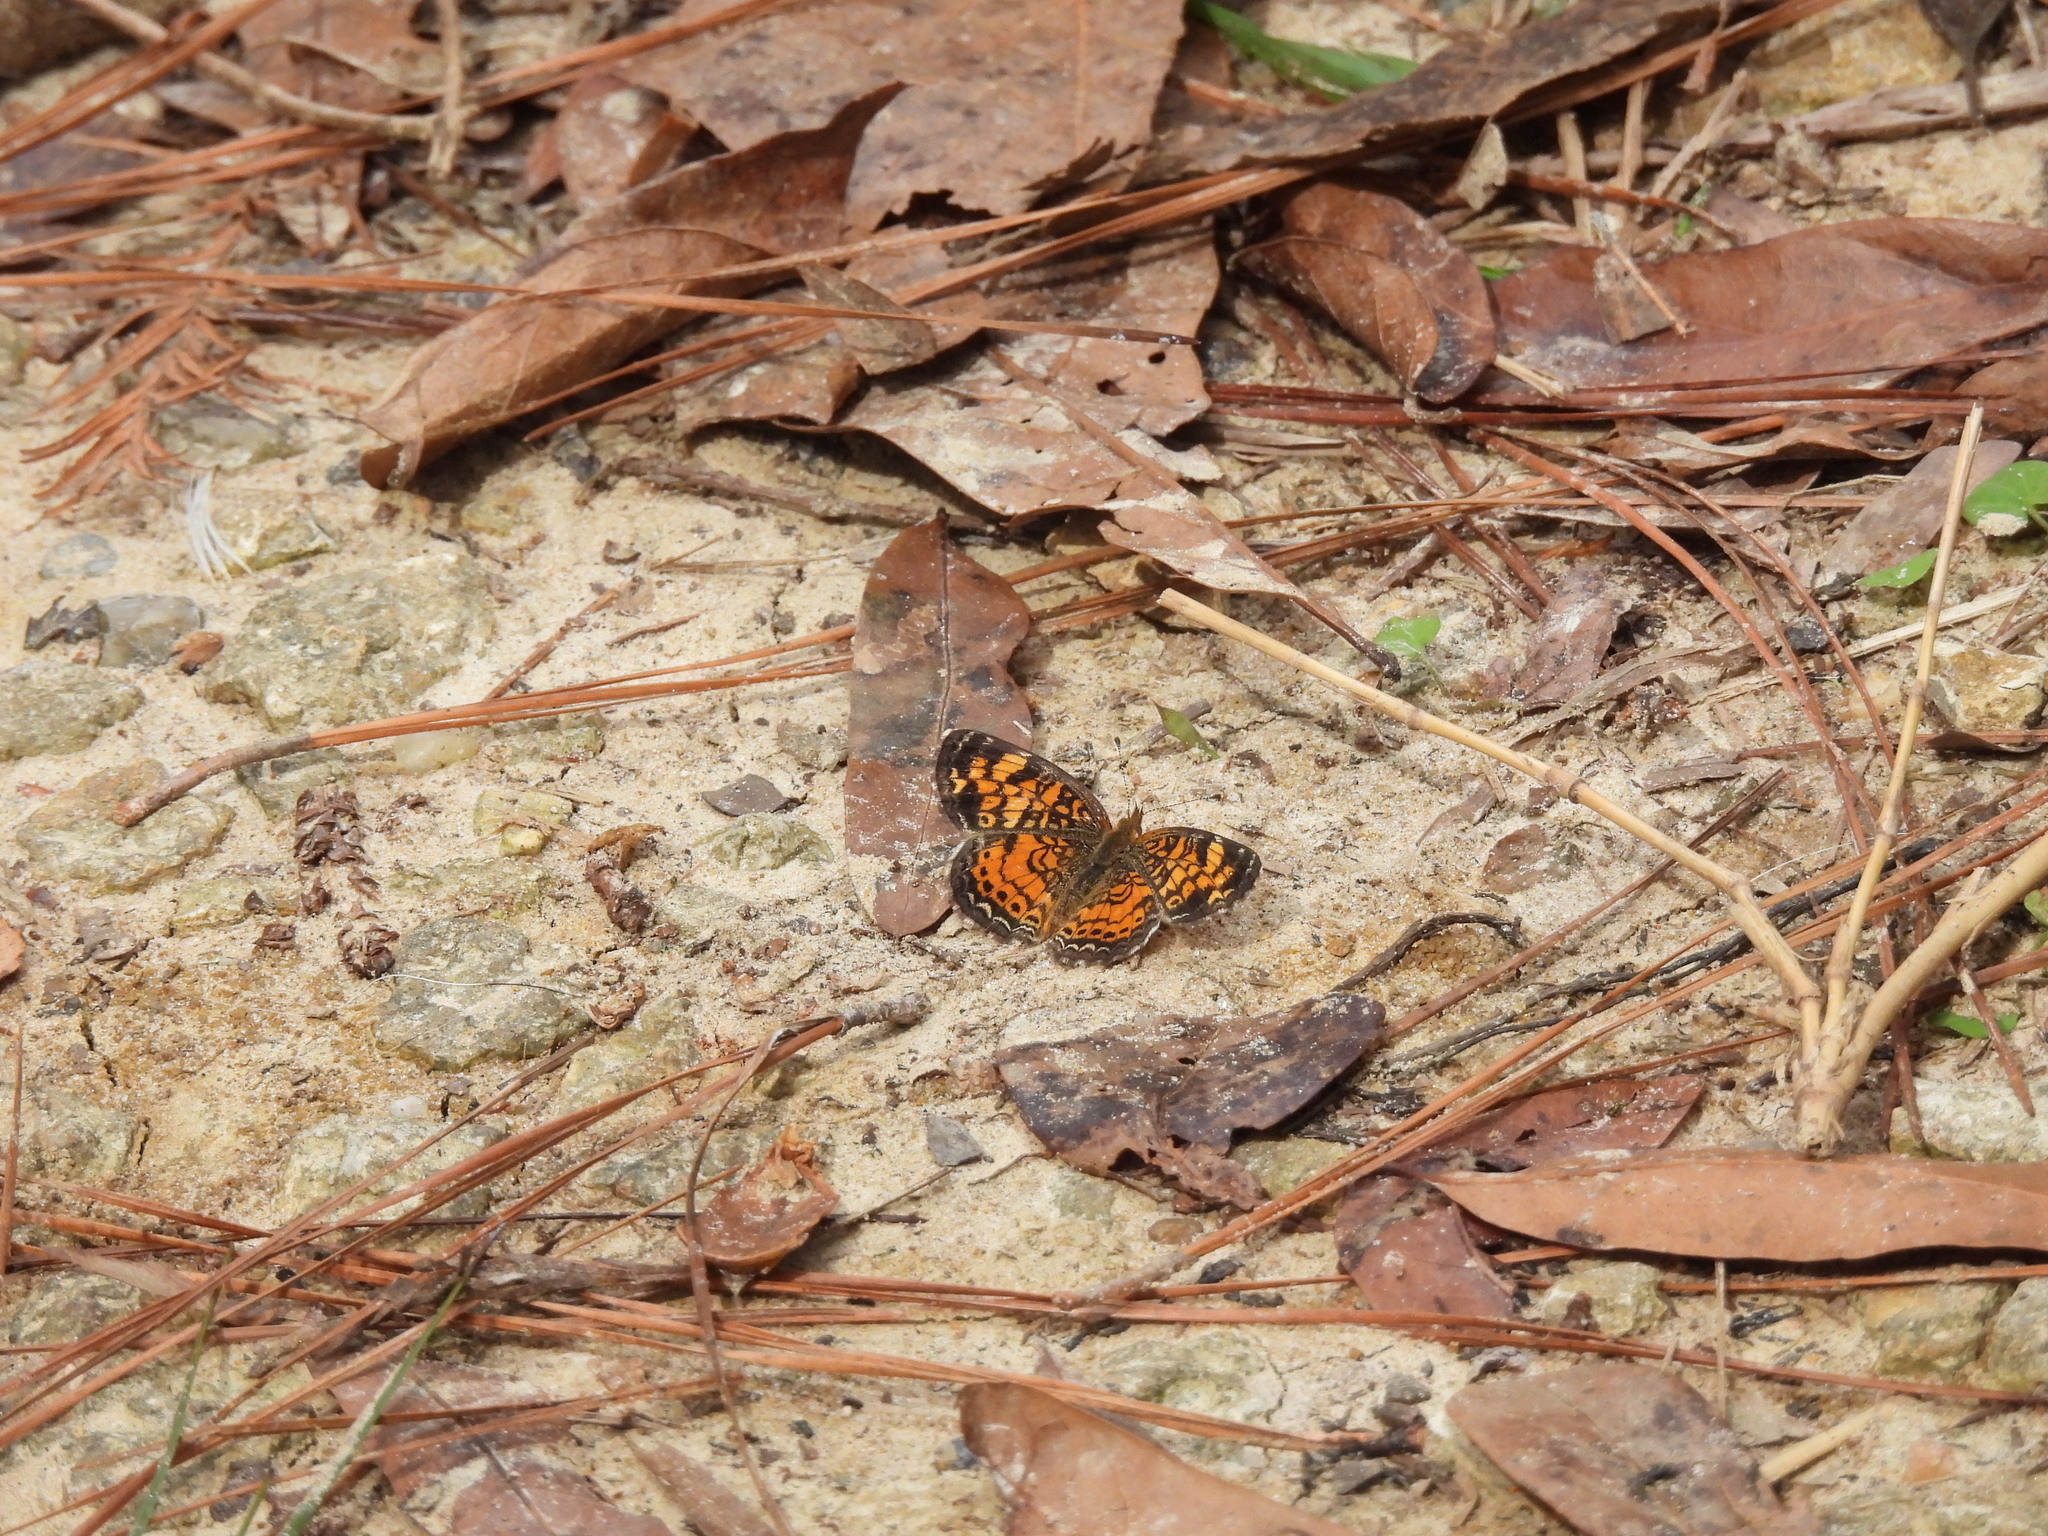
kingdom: Animalia
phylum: Arthropoda
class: Insecta
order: Lepidoptera
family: Nymphalidae
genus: Phyciodes
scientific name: Phyciodes tharos
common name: Pearl crescent
